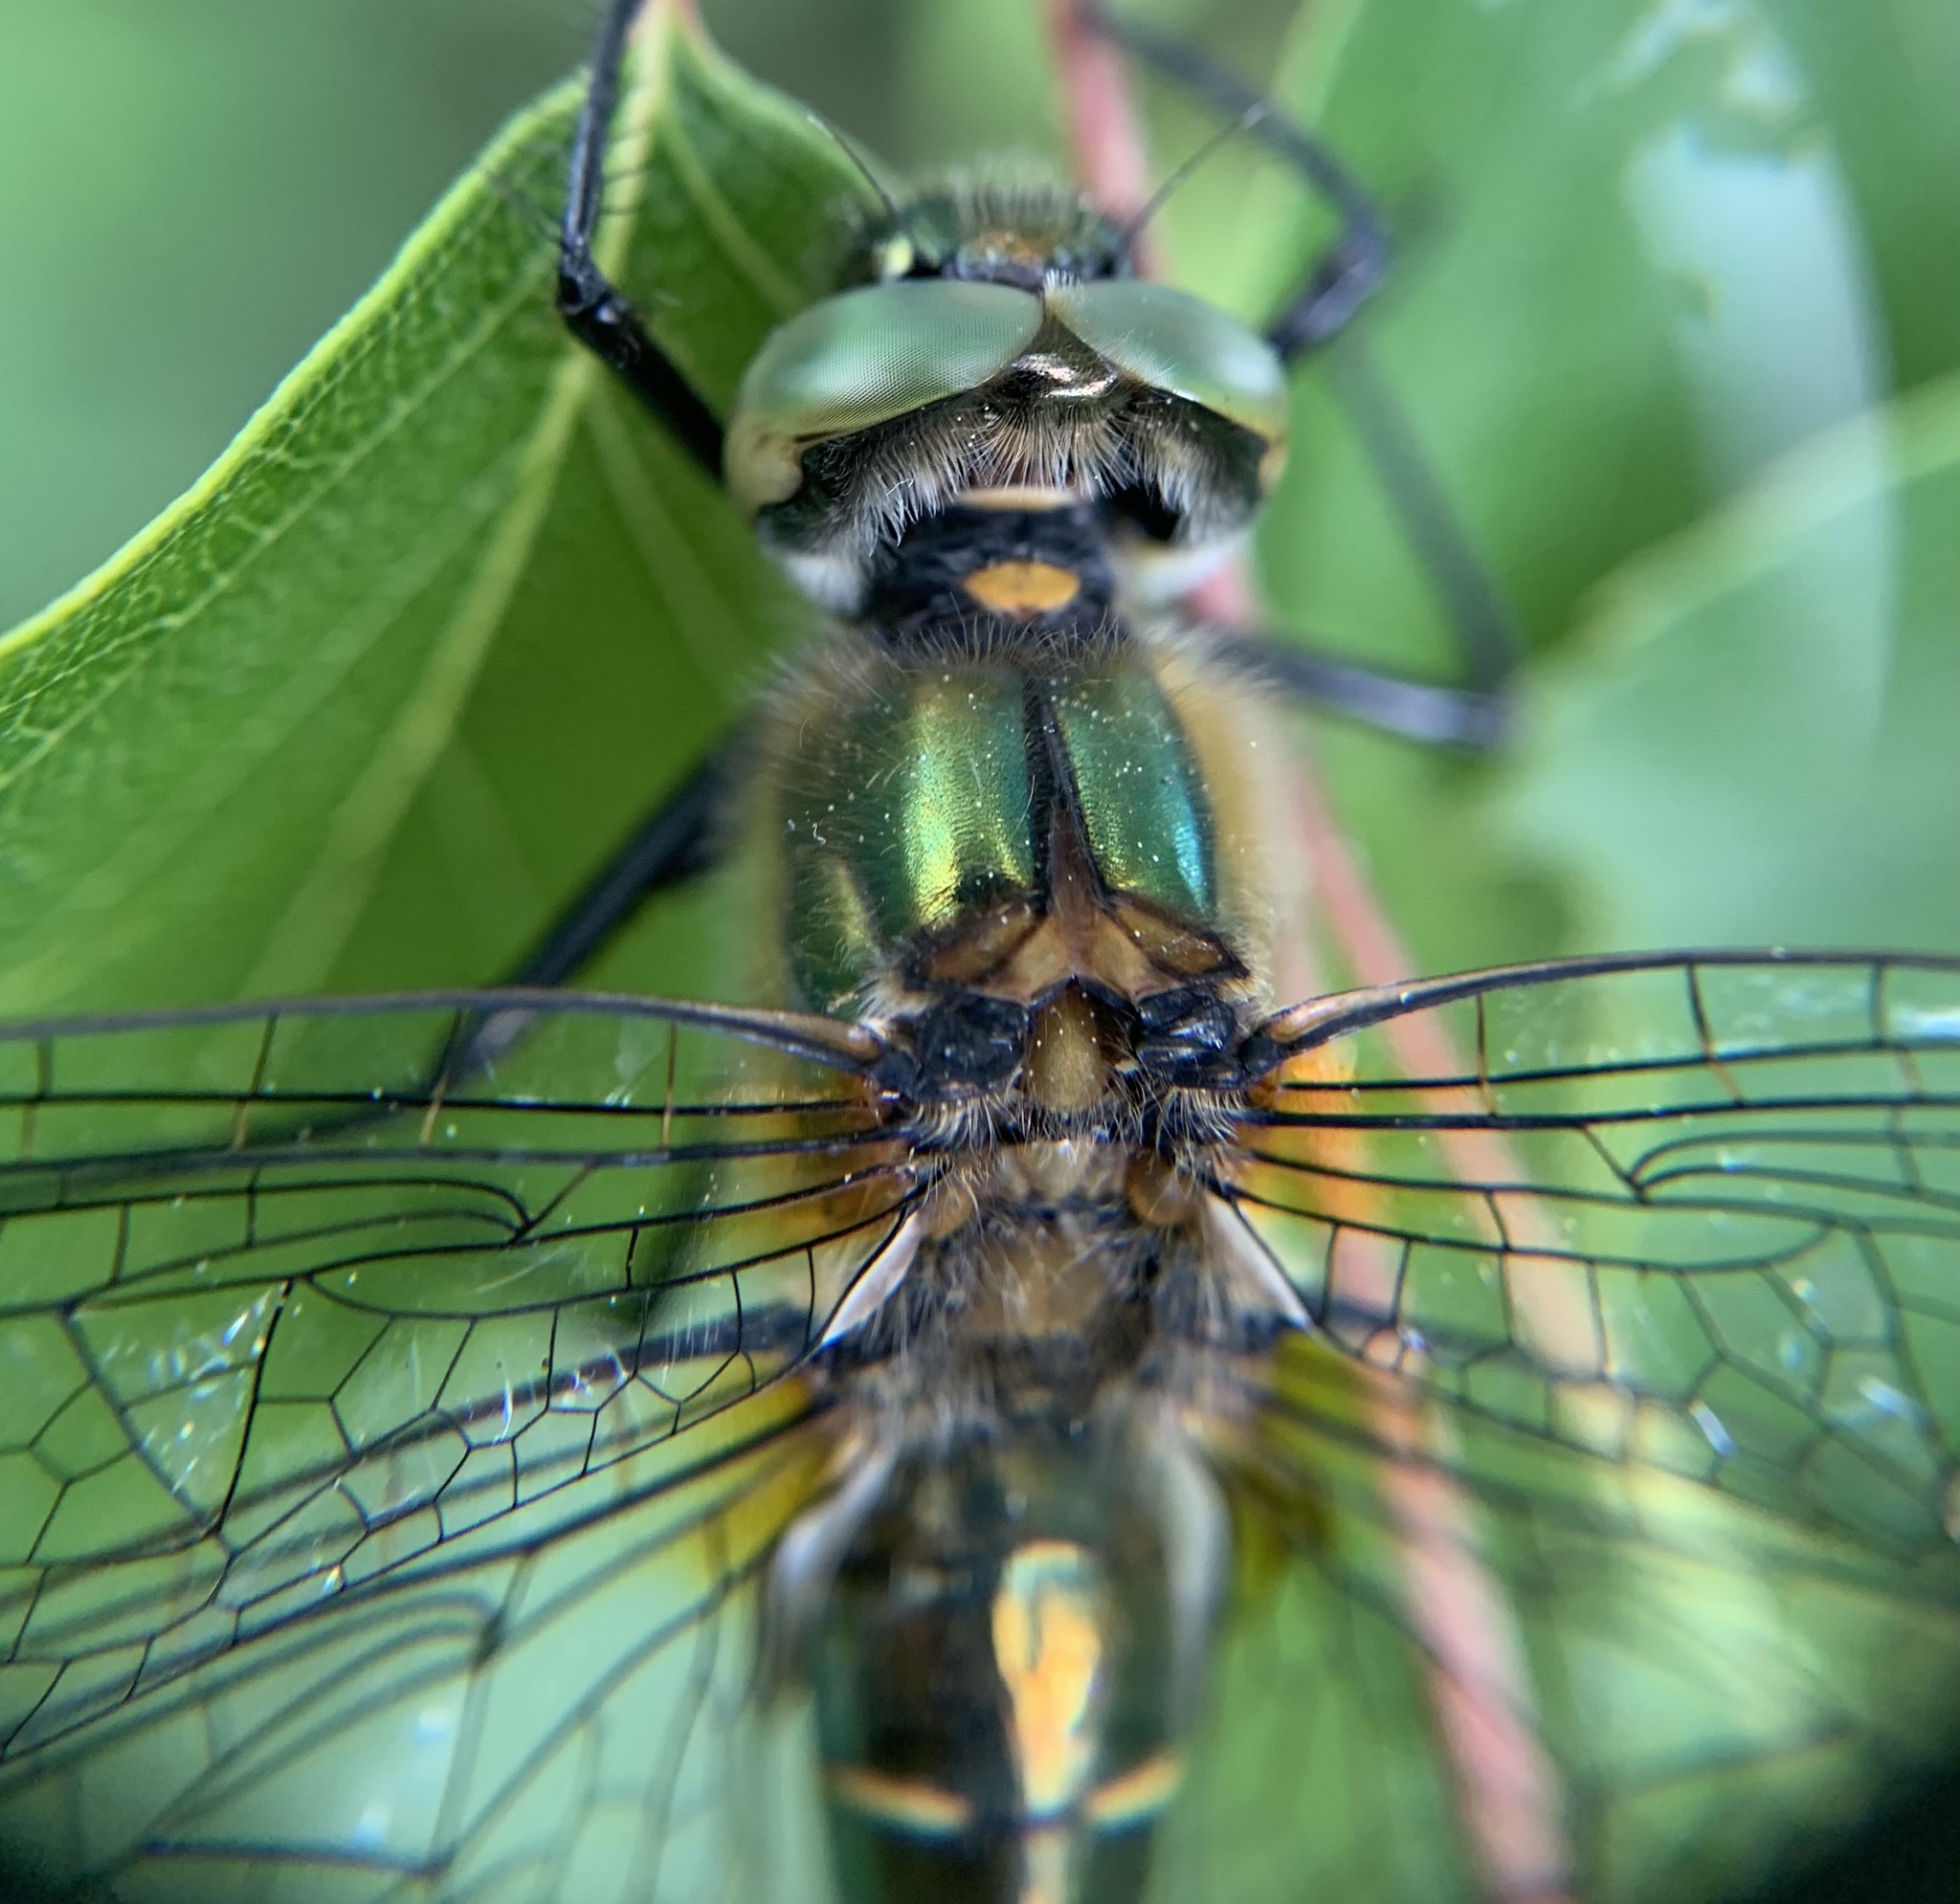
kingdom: Animalia
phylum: Arthropoda
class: Insecta
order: Odonata
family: Corduliidae
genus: Cordulia
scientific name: Cordulia aenea
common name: Downy emerald
